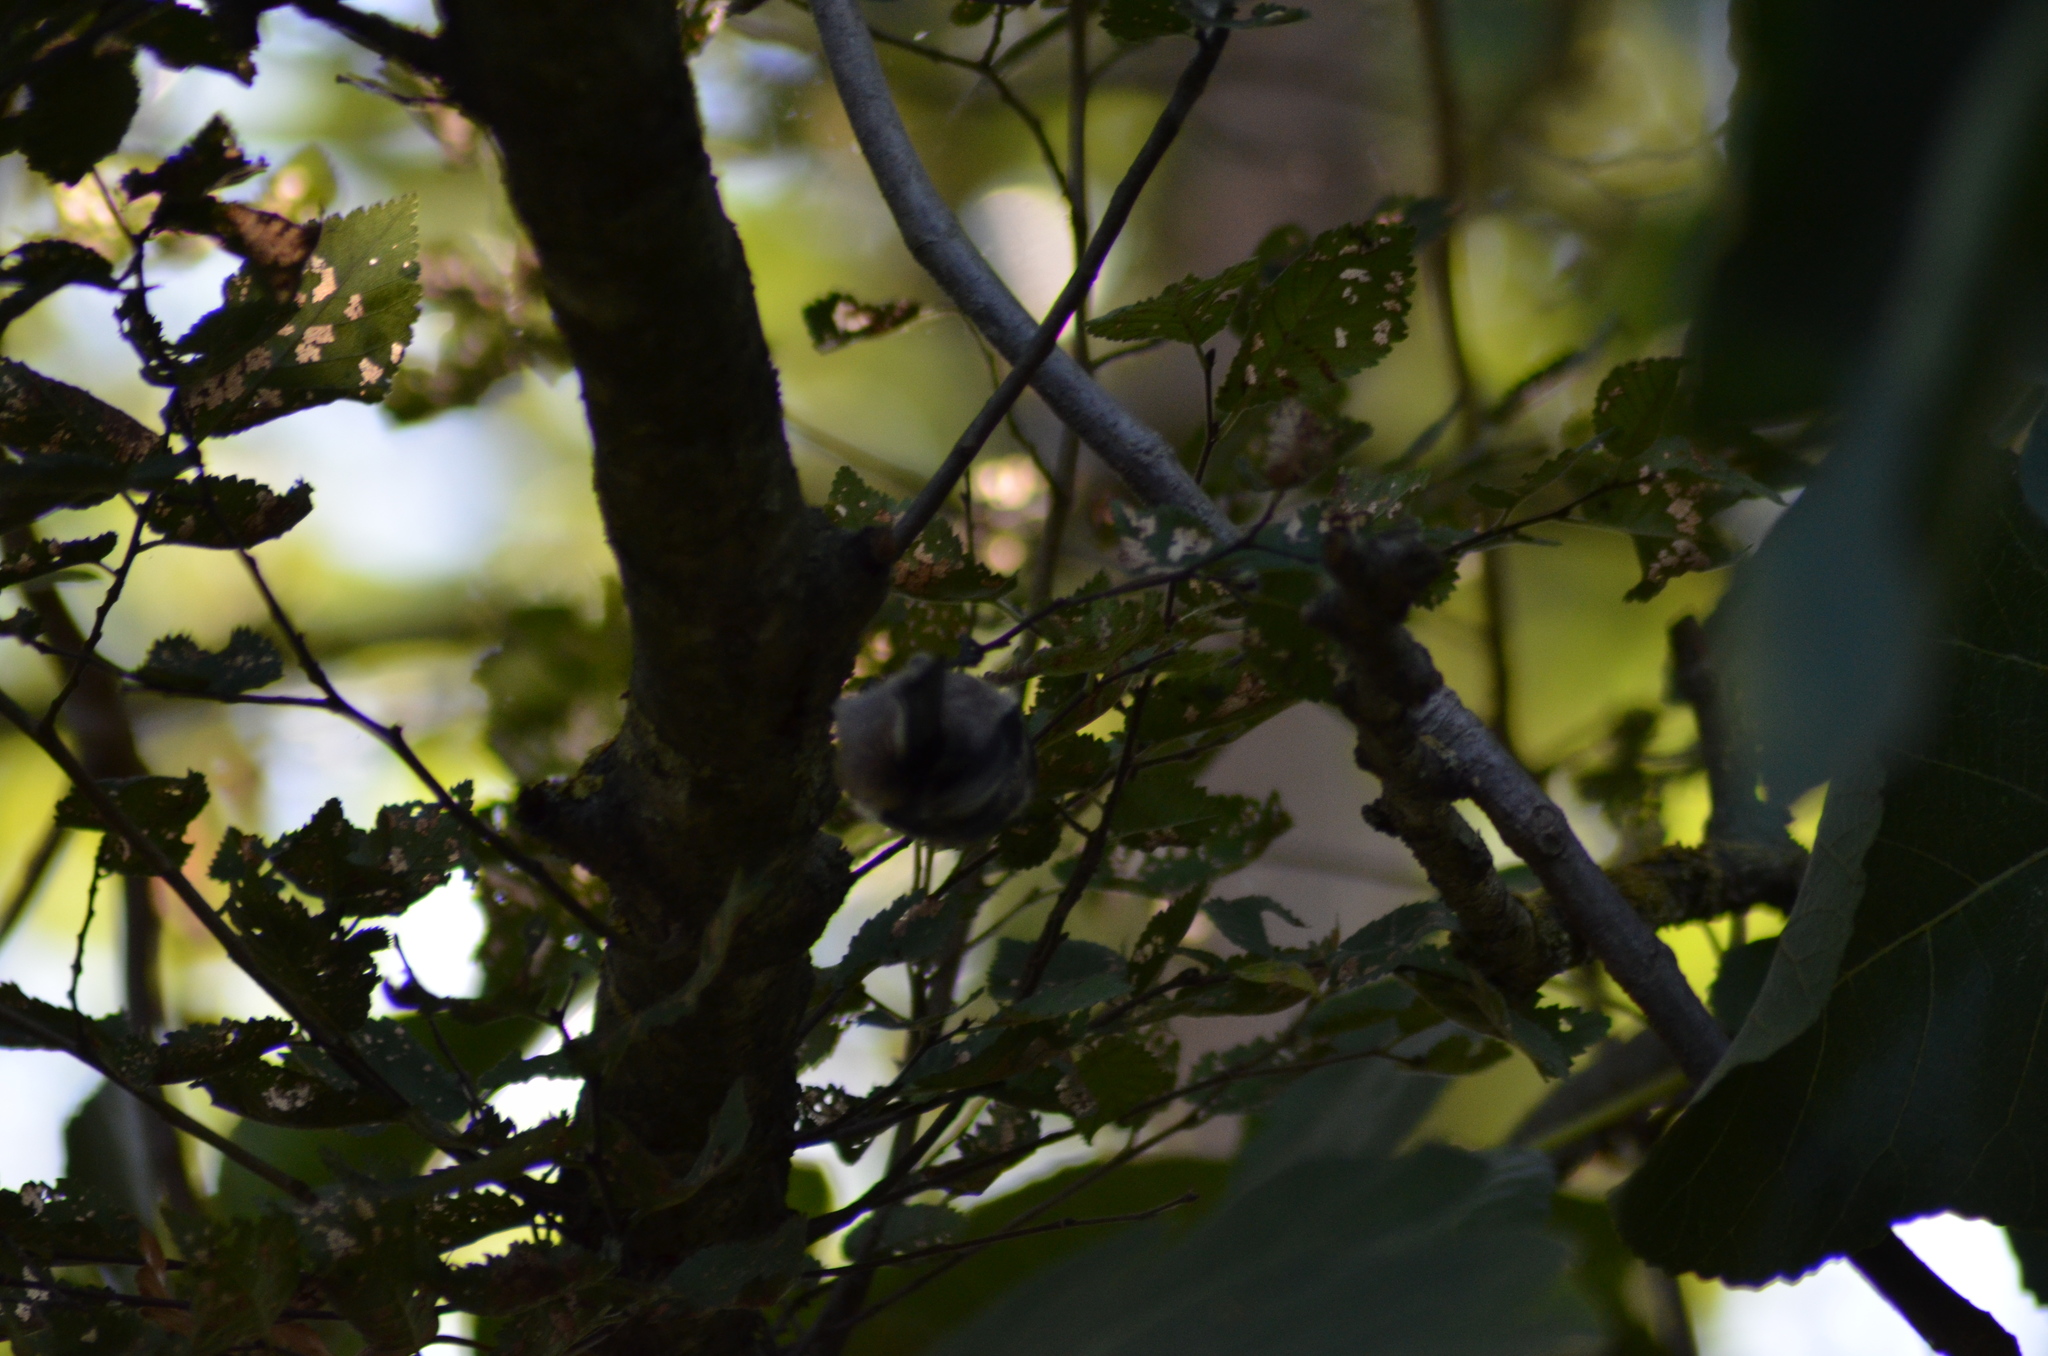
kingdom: Animalia
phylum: Chordata
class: Aves
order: Passeriformes
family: Aegithalidae
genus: Aegithalos
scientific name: Aegithalos caudatus
